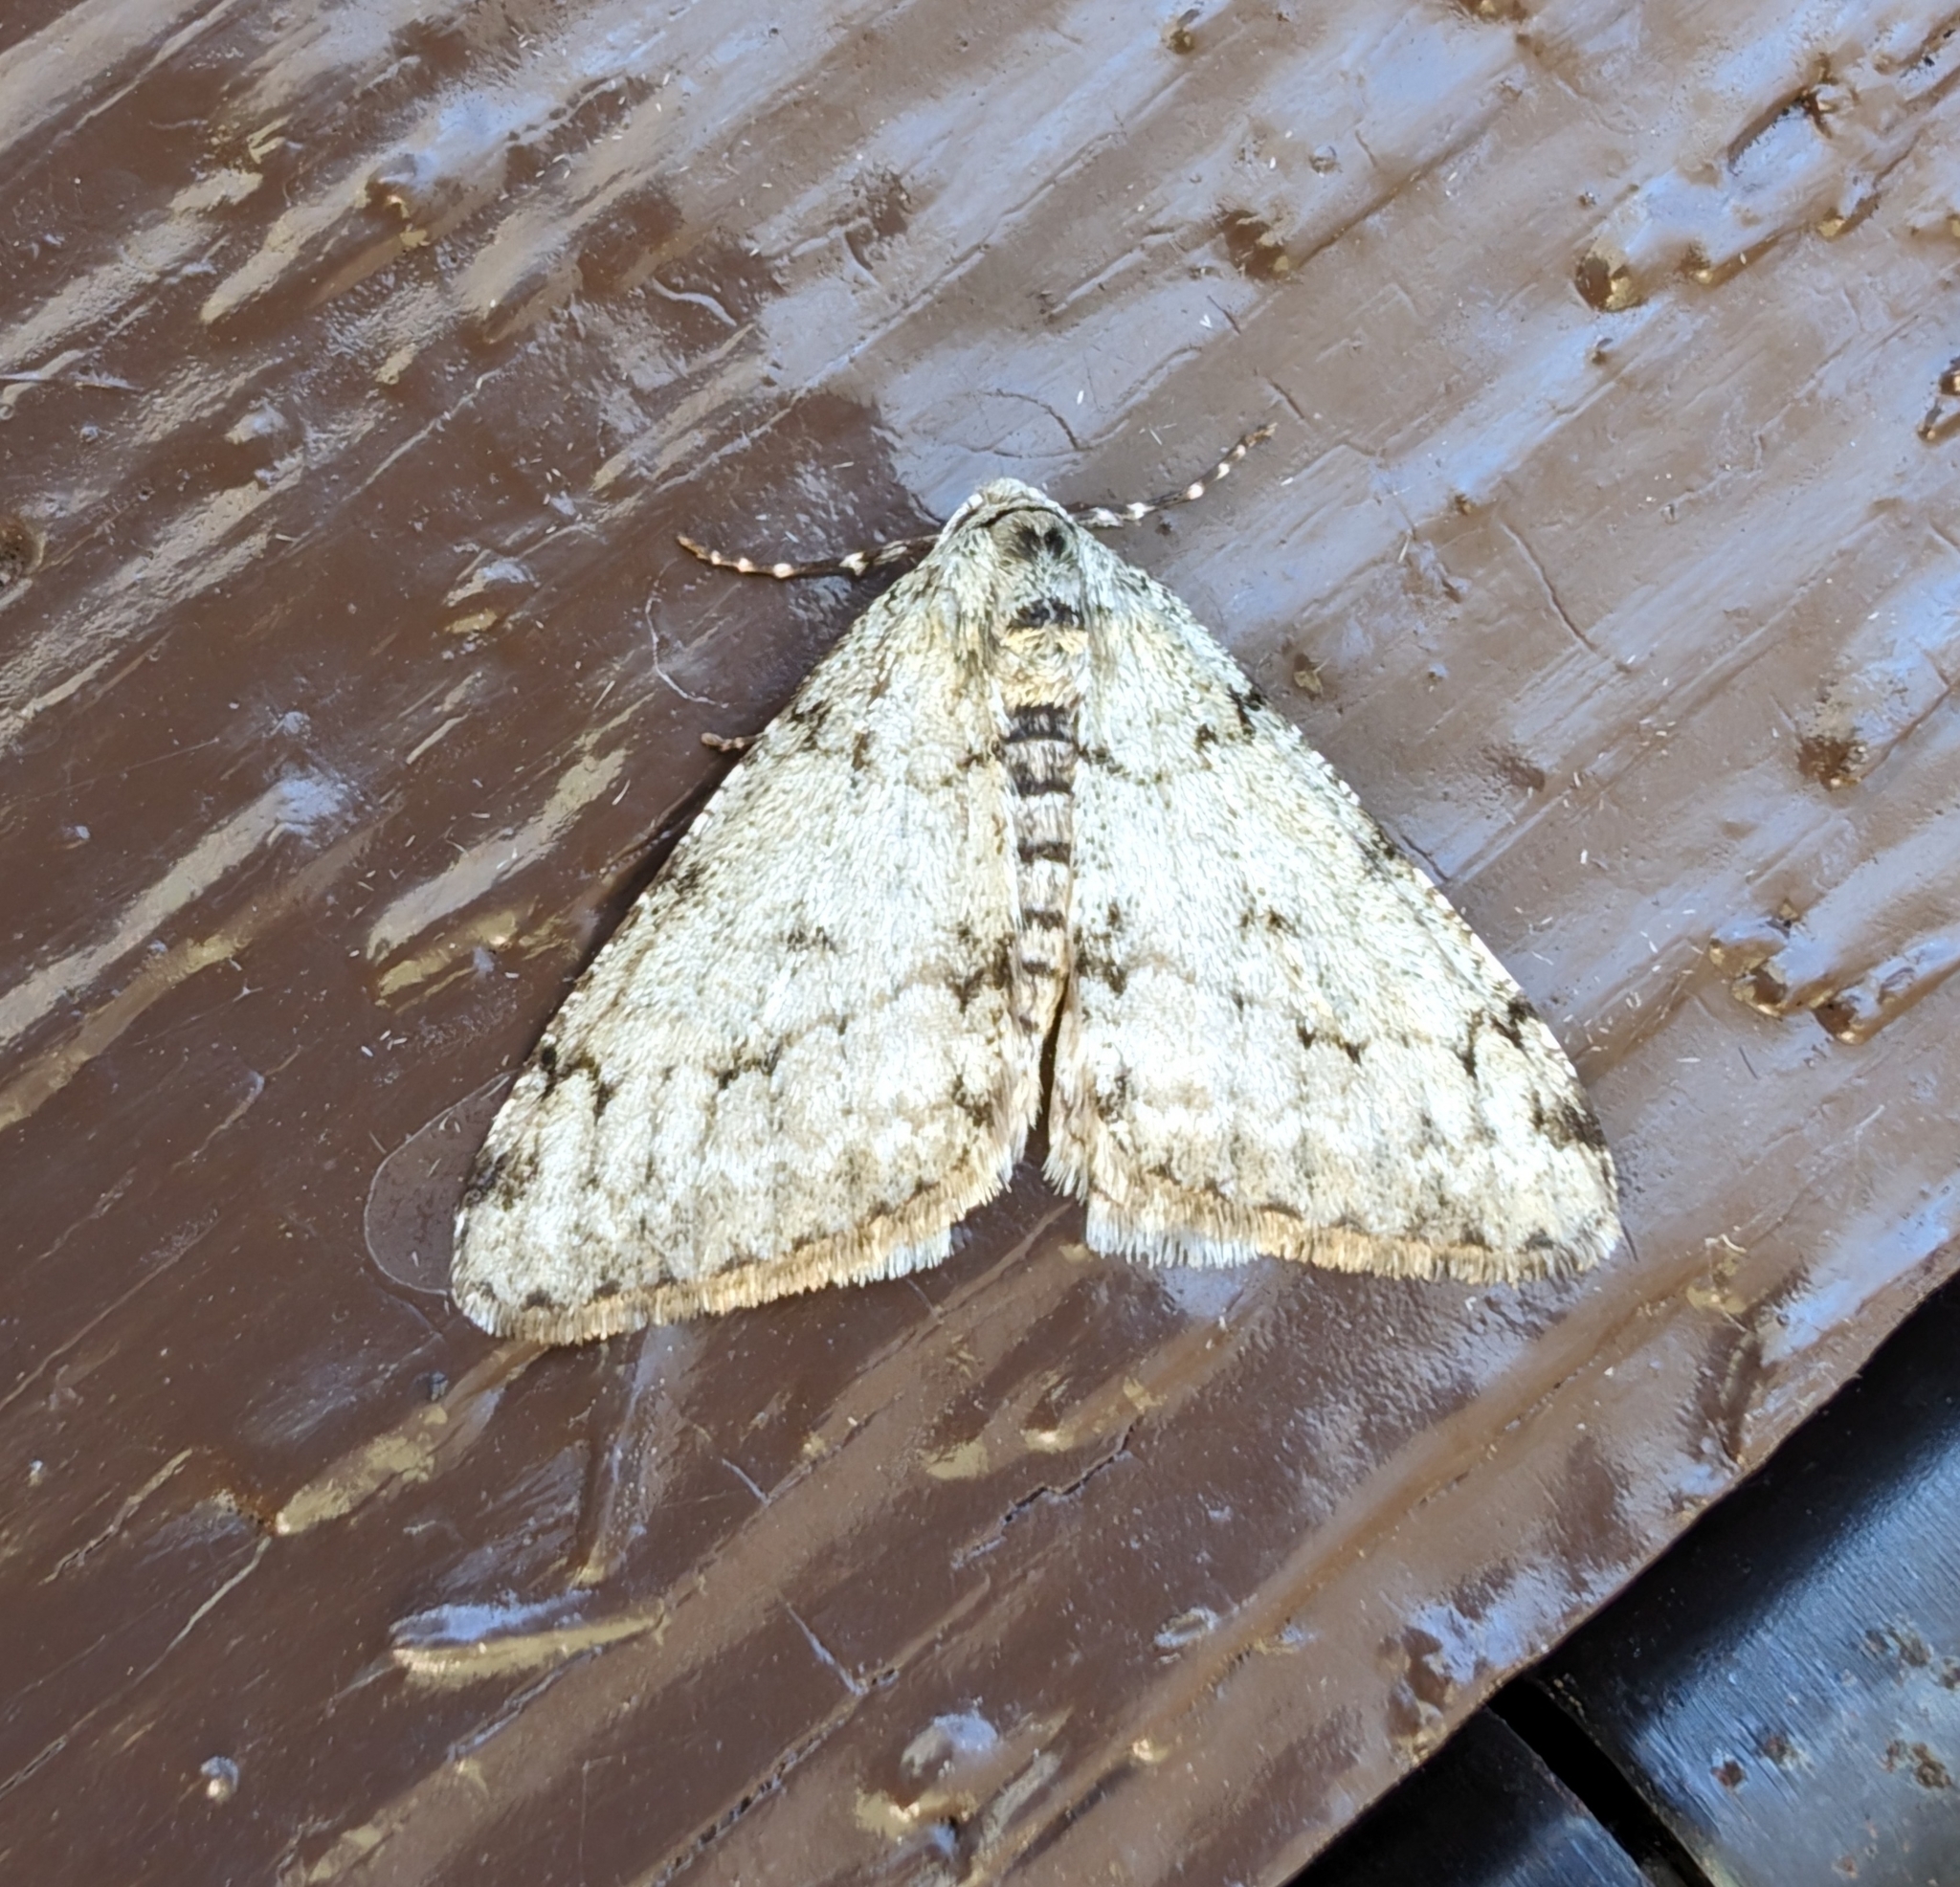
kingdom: Animalia
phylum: Arthropoda
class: Insecta
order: Lepidoptera
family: Geometridae
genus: Phigalia
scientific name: Phigalia strigataria
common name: Small phigalia
